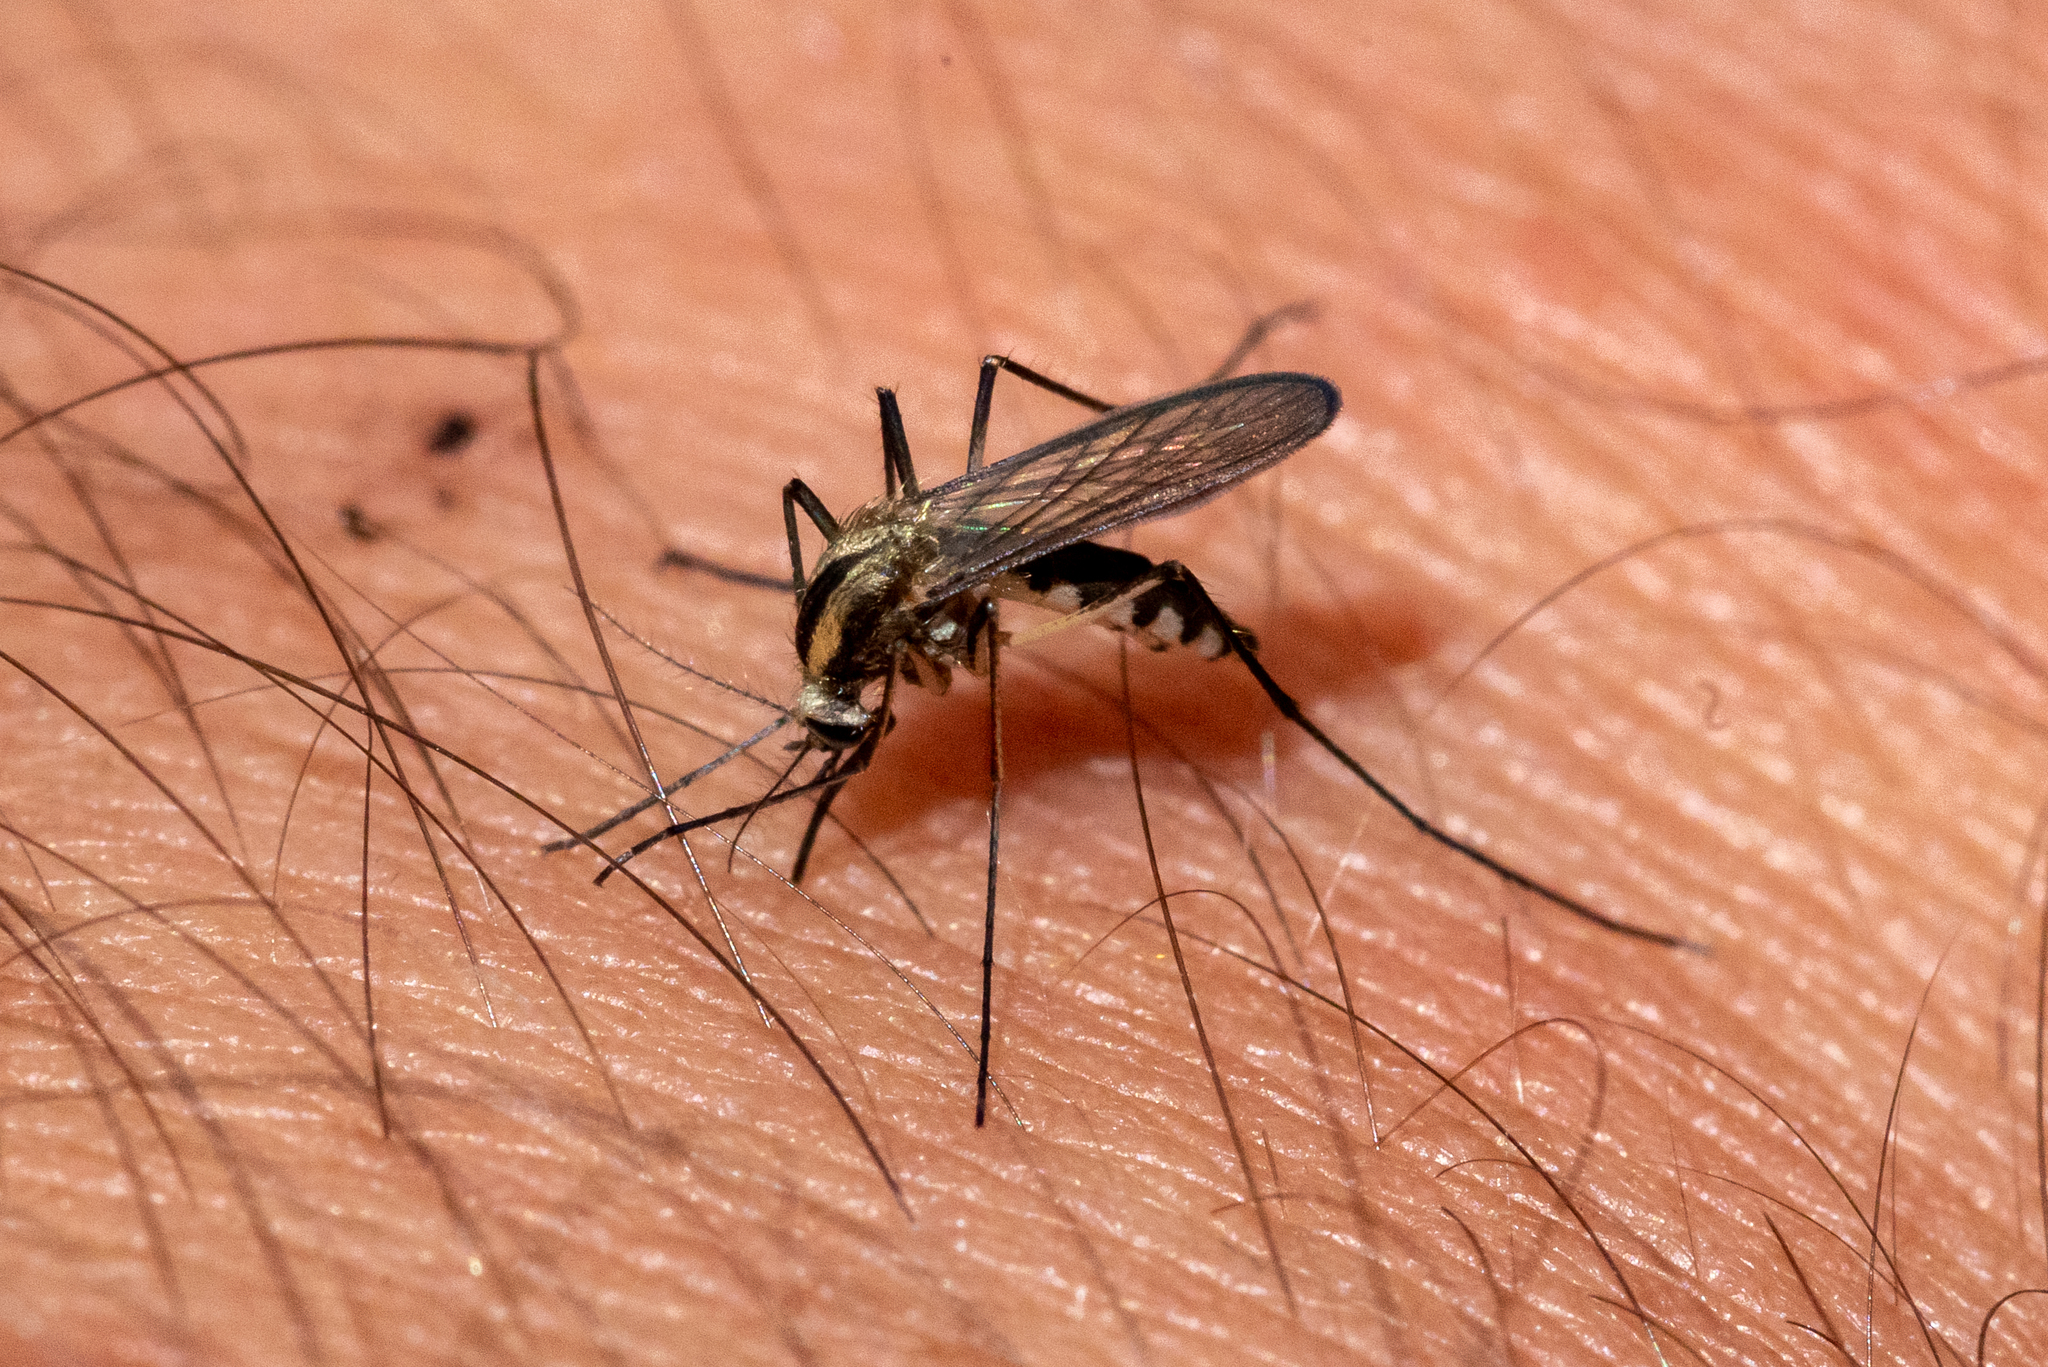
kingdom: Animalia
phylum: Arthropoda
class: Insecta
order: Diptera
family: Culicidae
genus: Aedes
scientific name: Aedes trivittatus
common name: Plains floodwater mosquito
